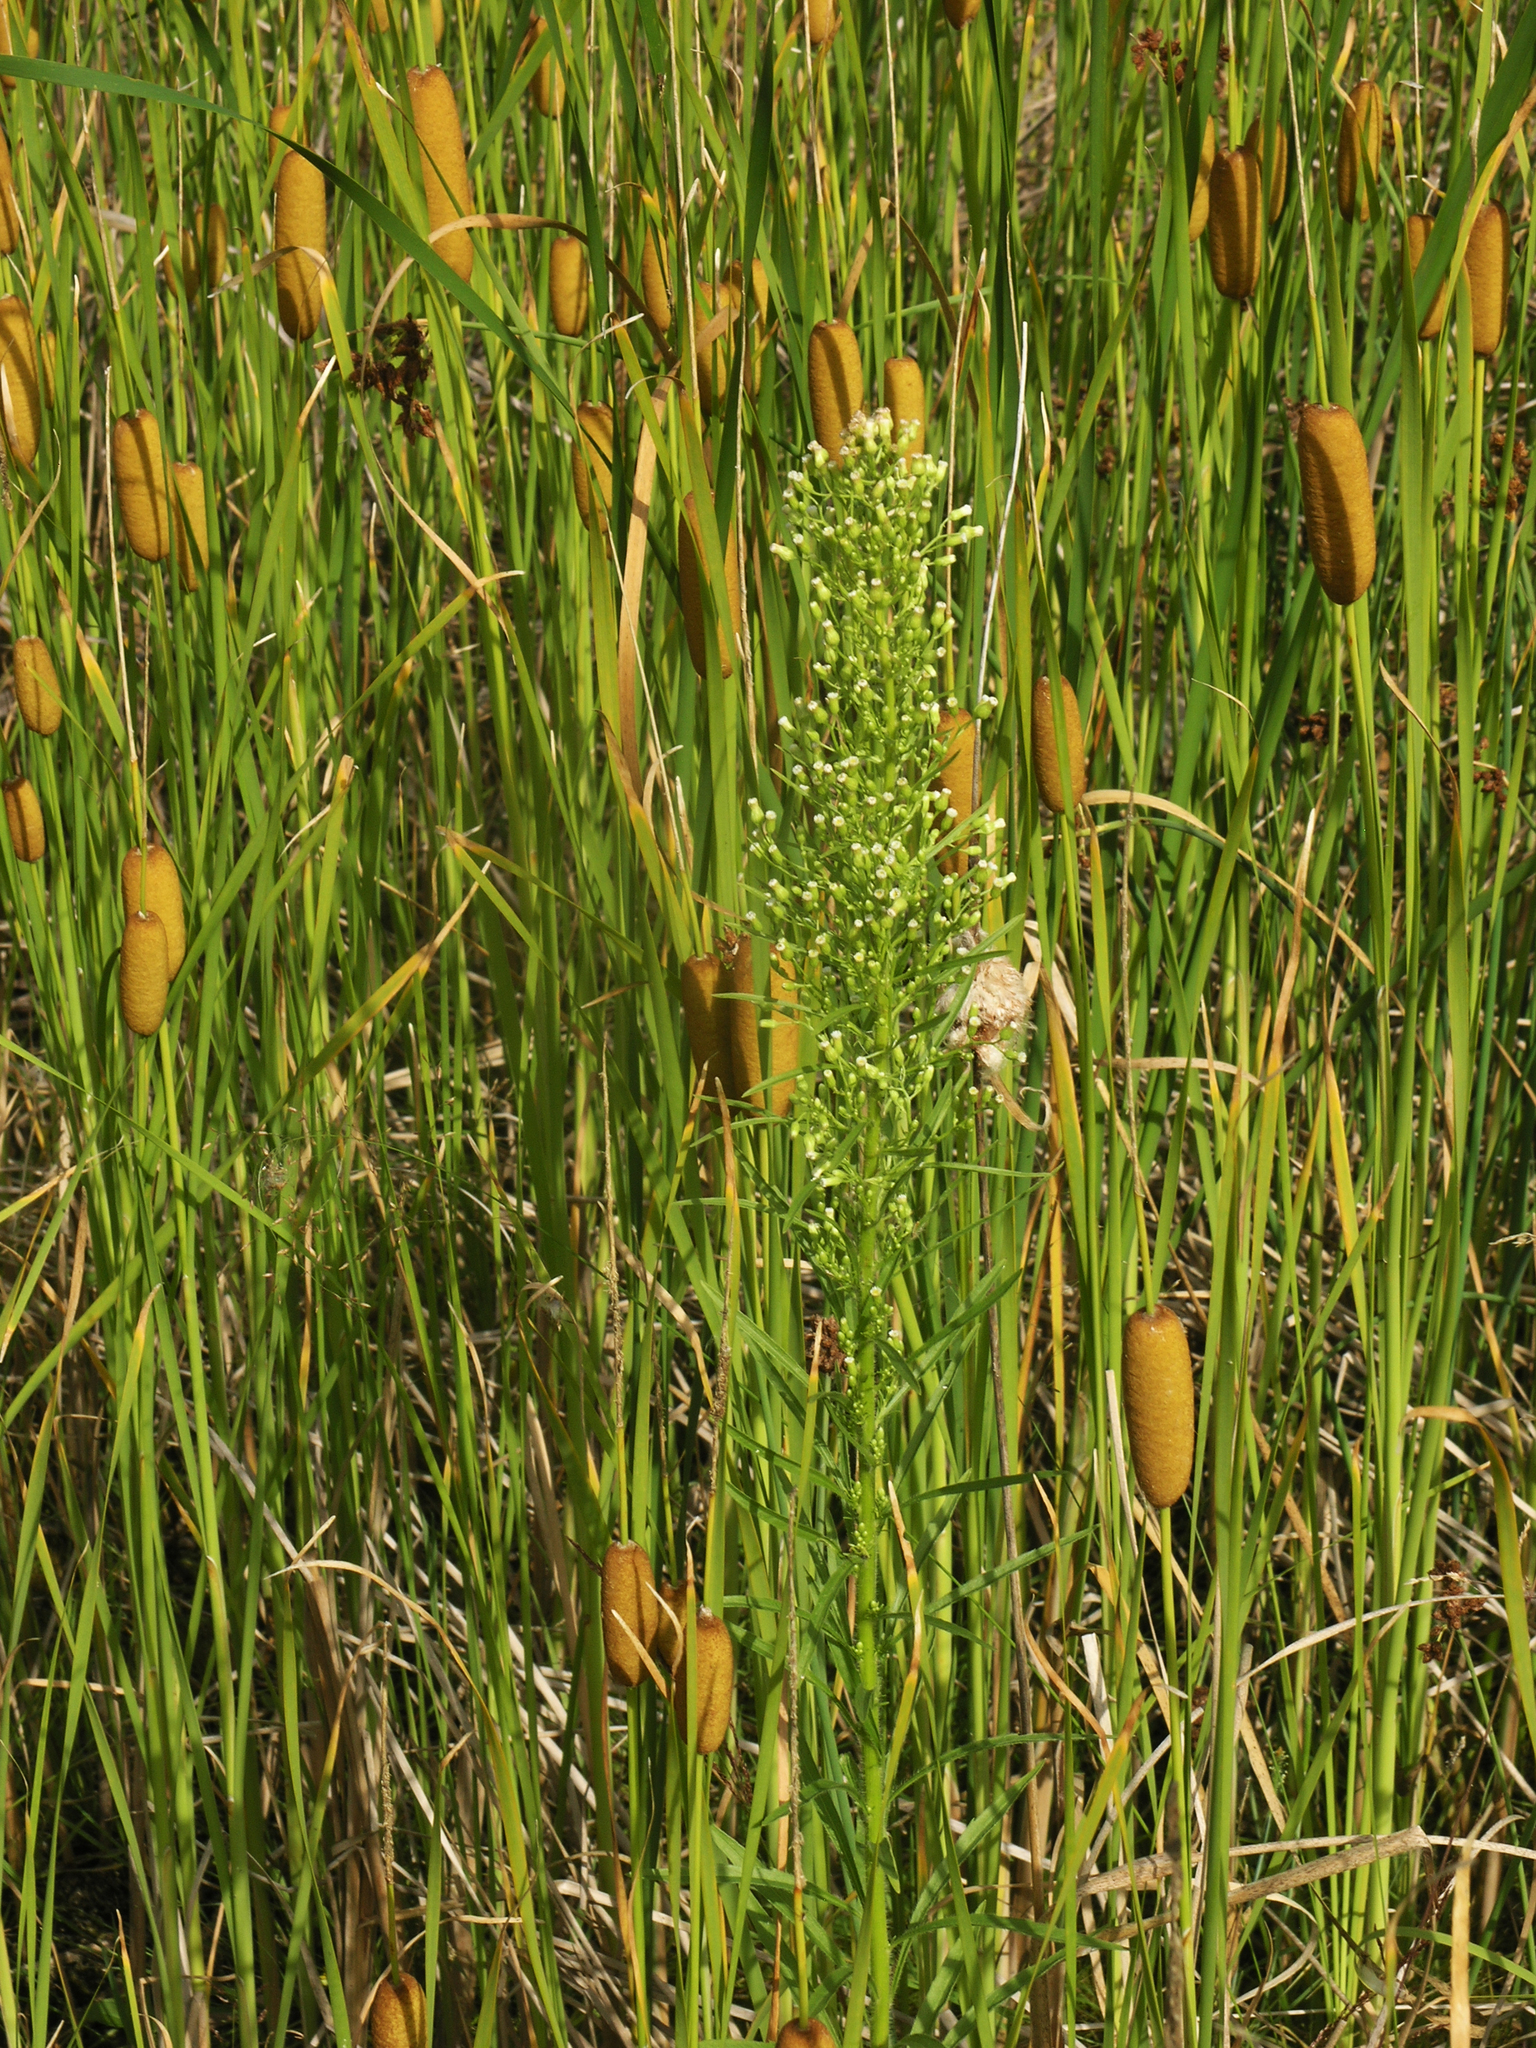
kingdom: Plantae
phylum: Tracheophyta
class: Magnoliopsida
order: Asterales
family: Asteraceae
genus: Erigeron
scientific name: Erigeron canadensis
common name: Canadian fleabane
